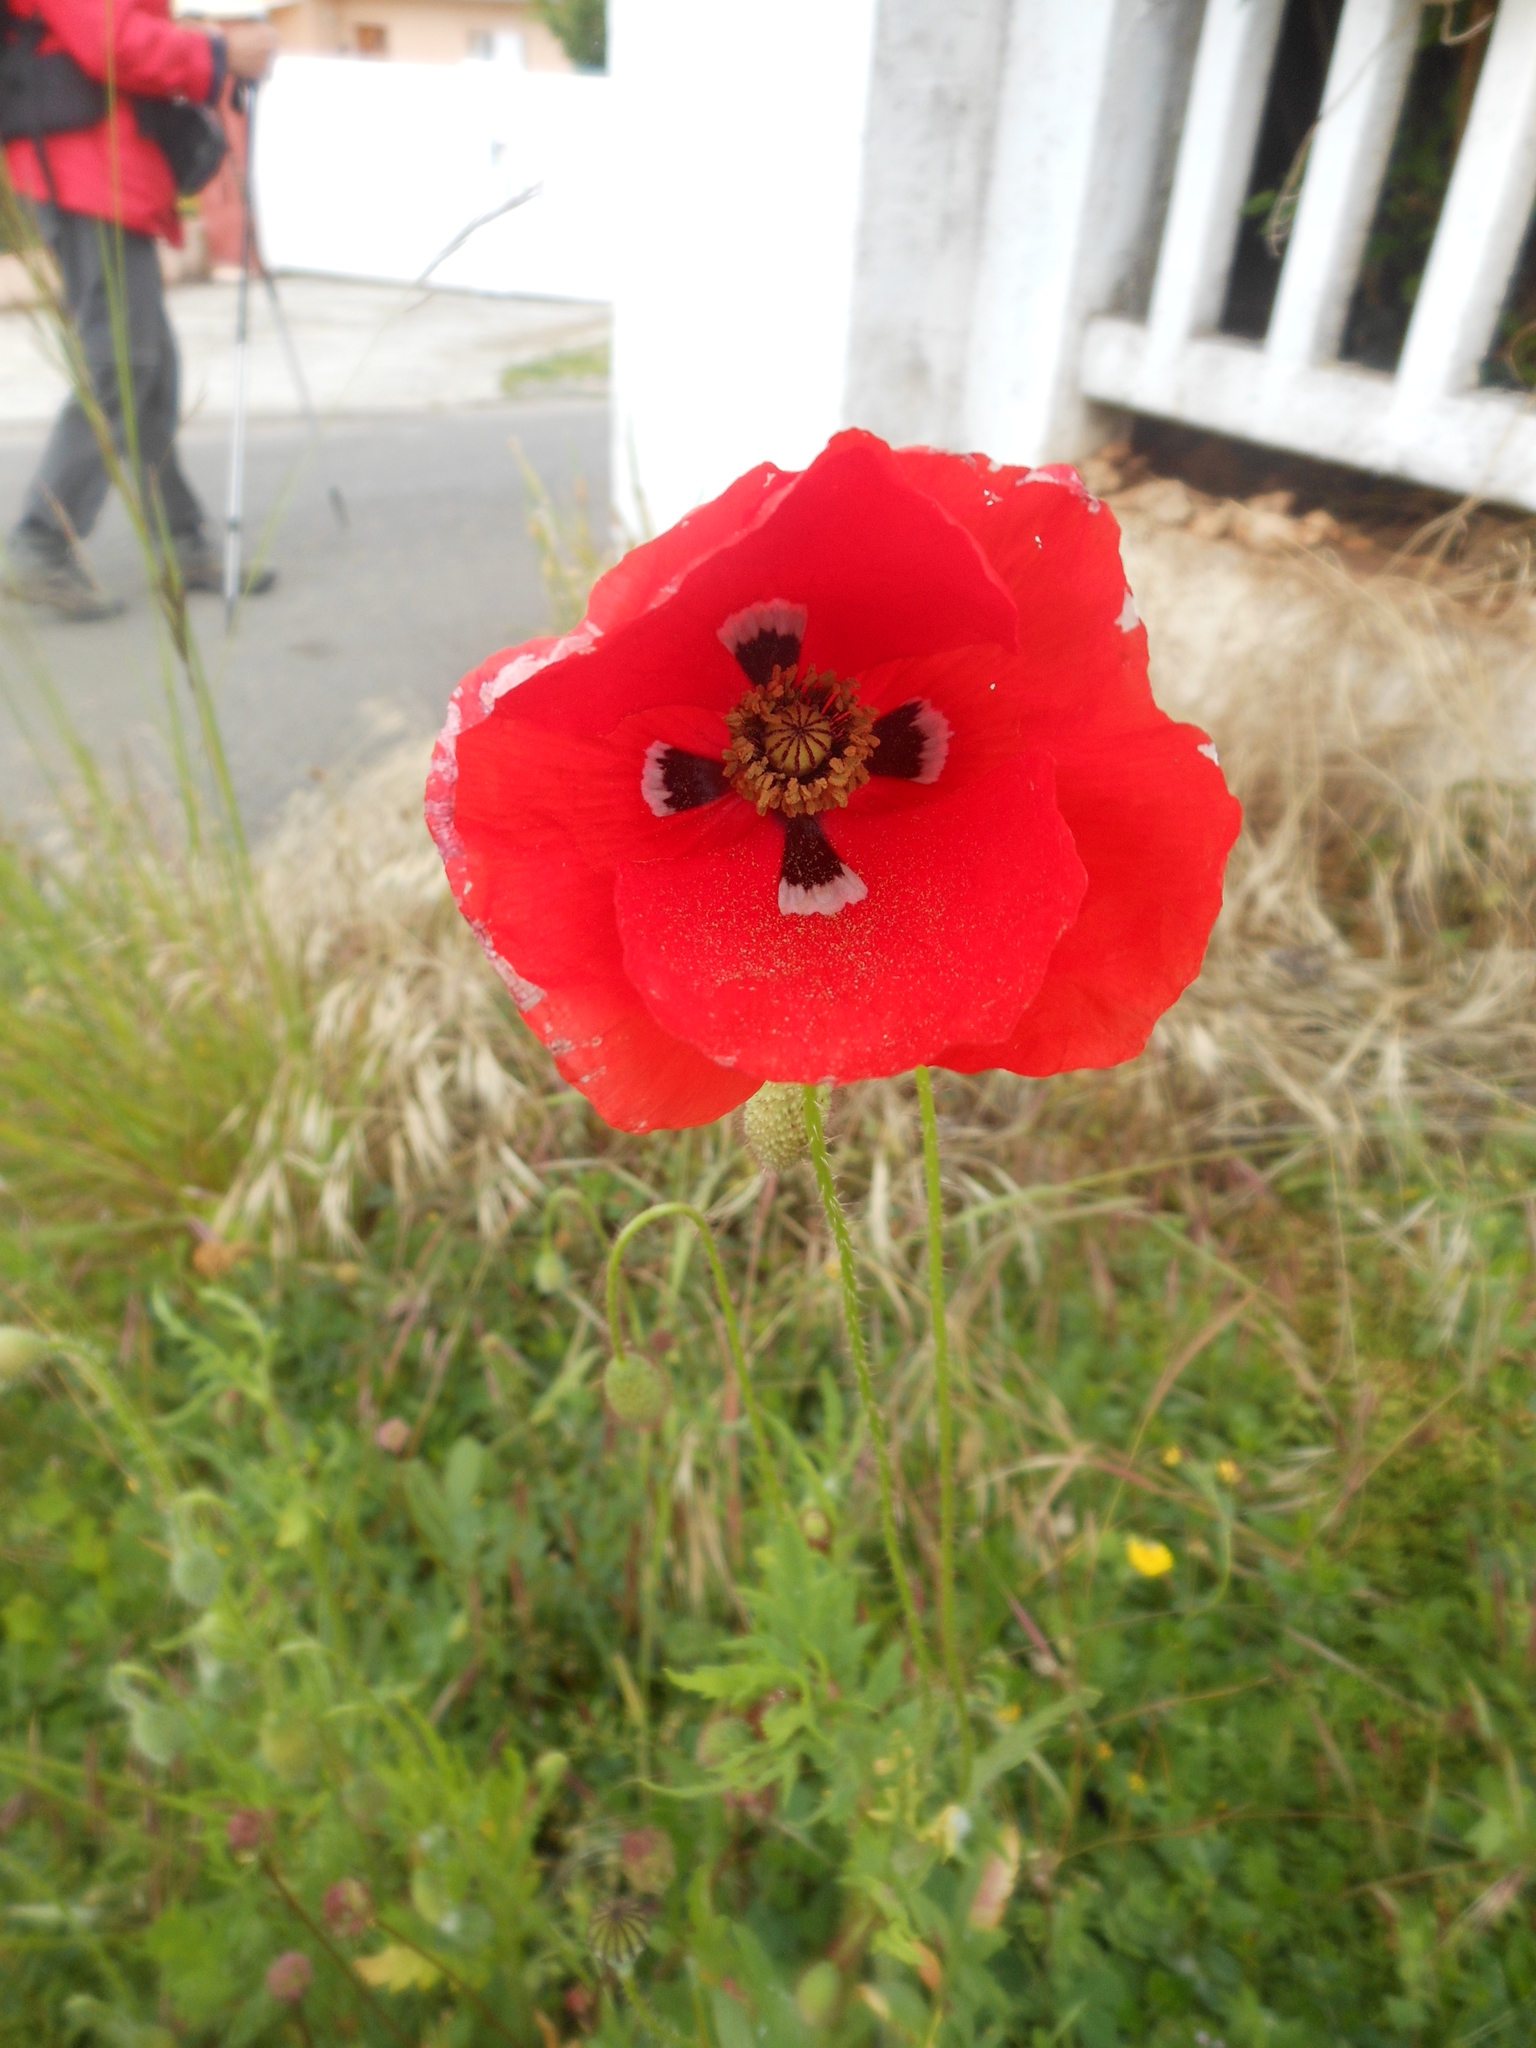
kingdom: Plantae
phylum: Tracheophyta
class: Magnoliopsida
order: Ranunculales
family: Papaveraceae
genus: Papaver
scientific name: Papaver rhoeas
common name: Corn poppy
